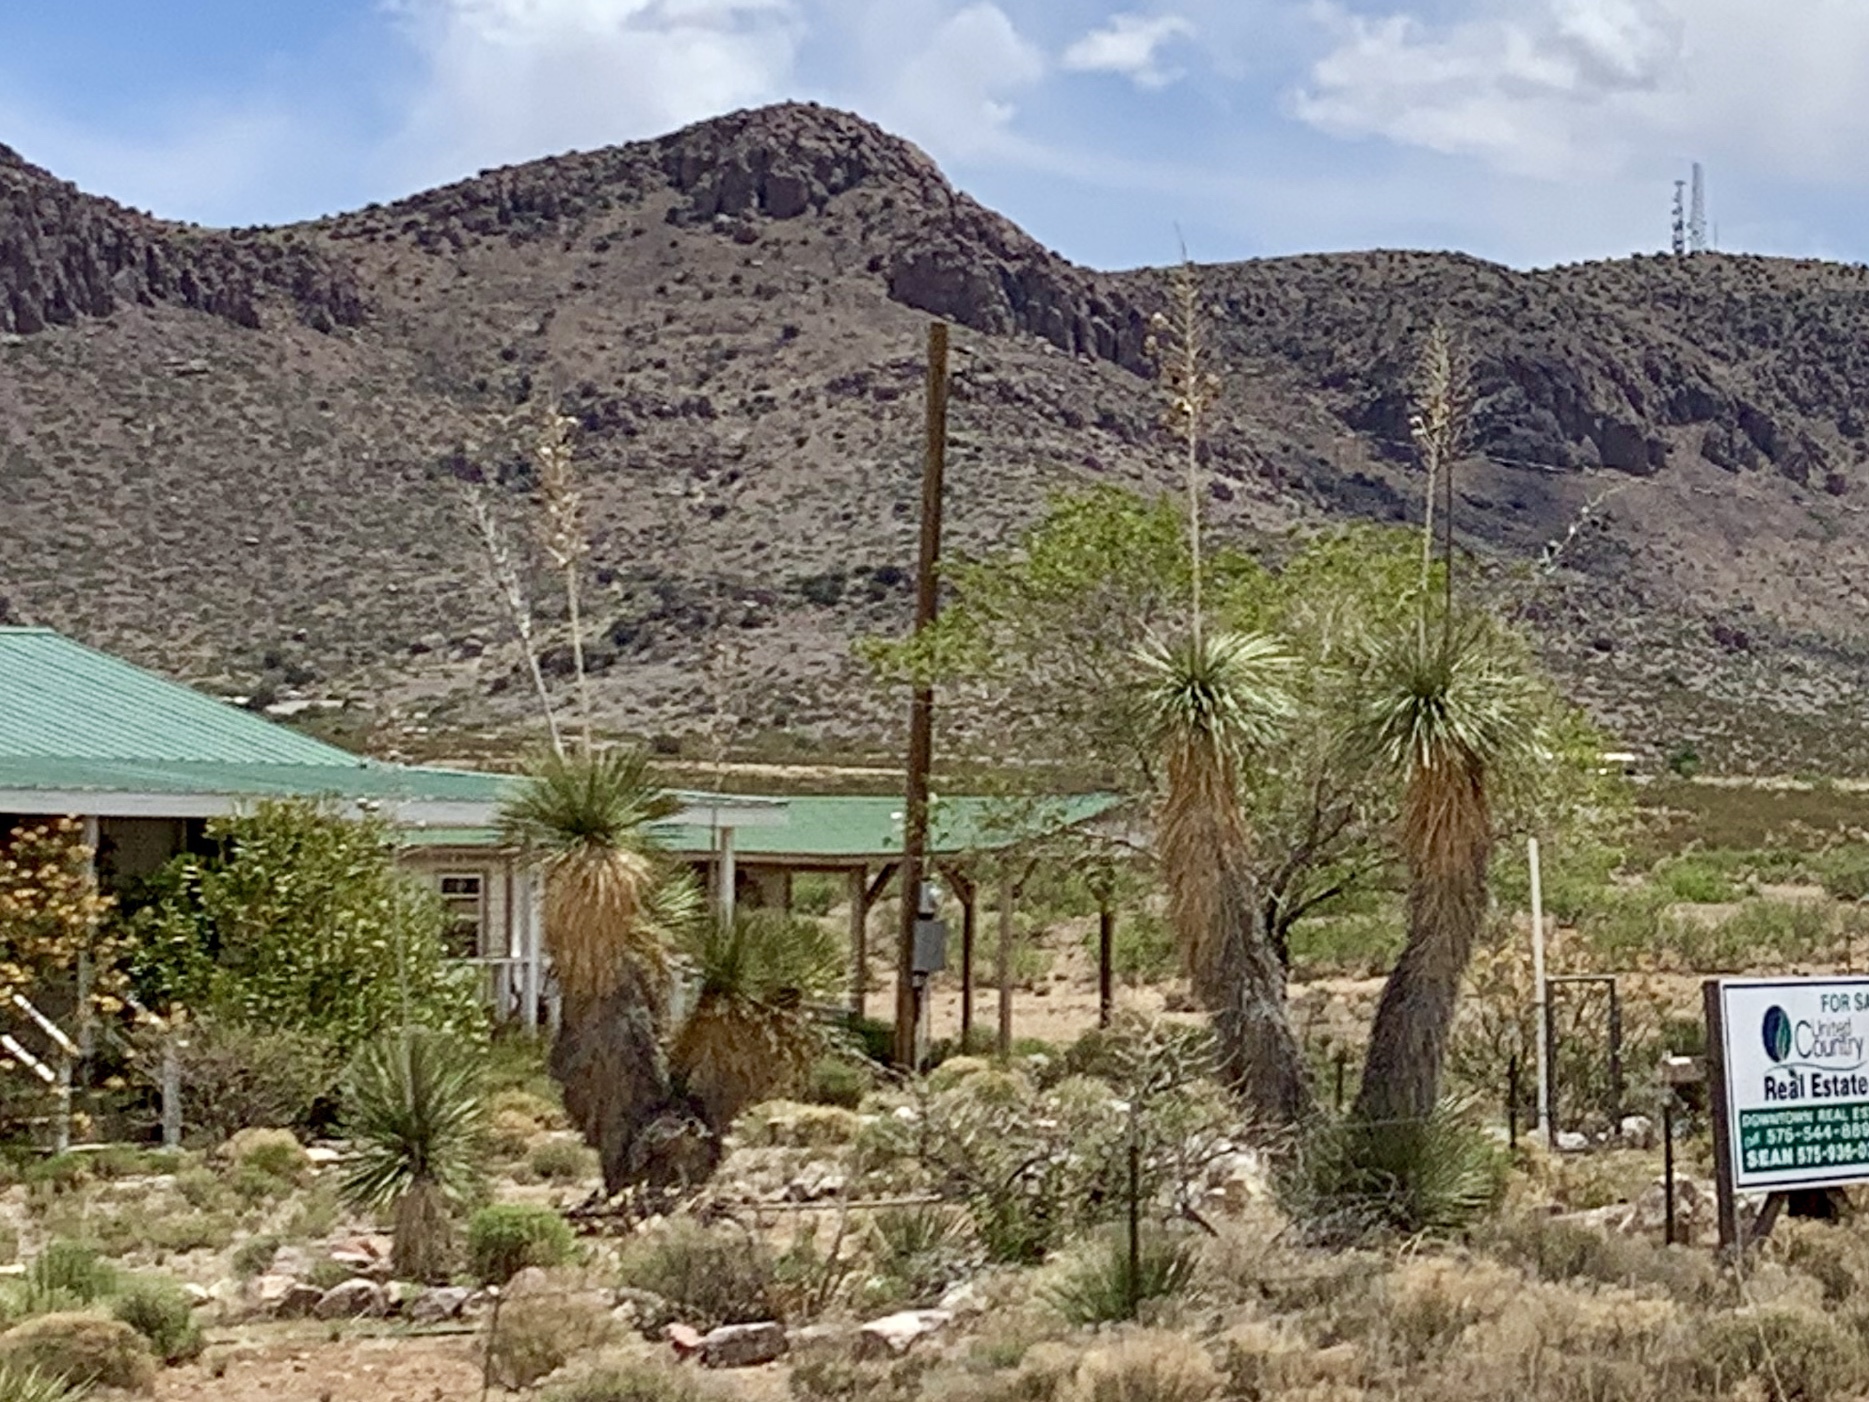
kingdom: Plantae
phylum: Tracheophyta
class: Liliopsida
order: Asparagales
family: Asparagaceae
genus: Yucca
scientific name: Yucca elata
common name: Palmella
